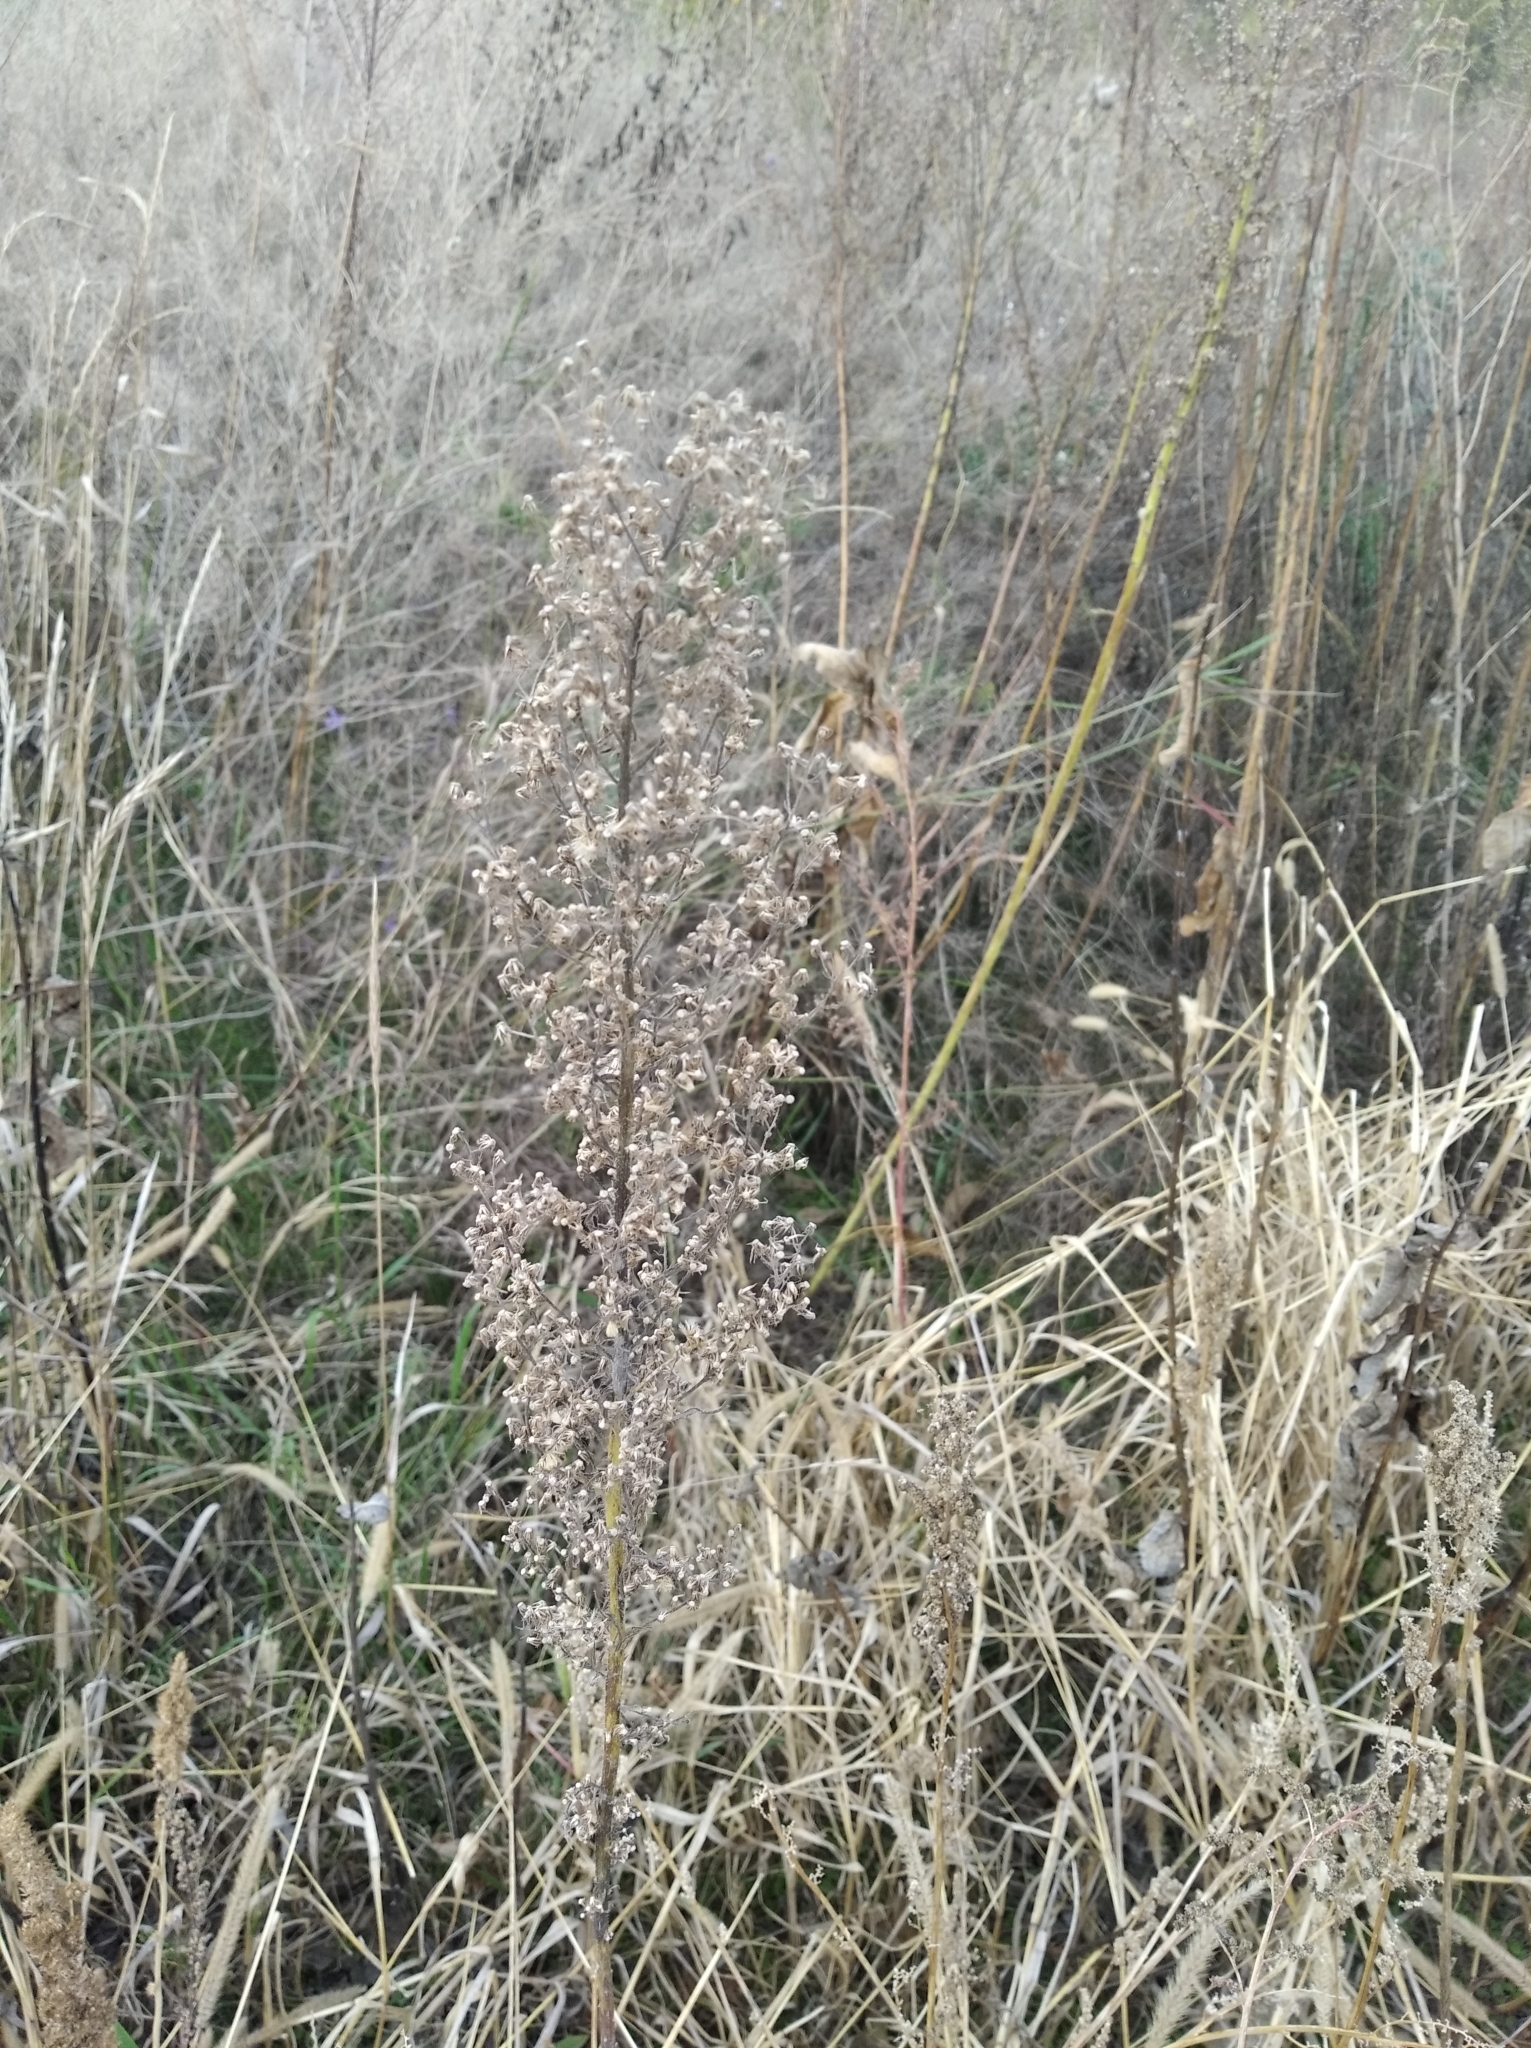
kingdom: Plantae
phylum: Tracheophyta
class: Magnoliopsida
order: Asterales
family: Asteraceae
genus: Erigeron
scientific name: Erigeron canadensis
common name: Canadian fleabane
